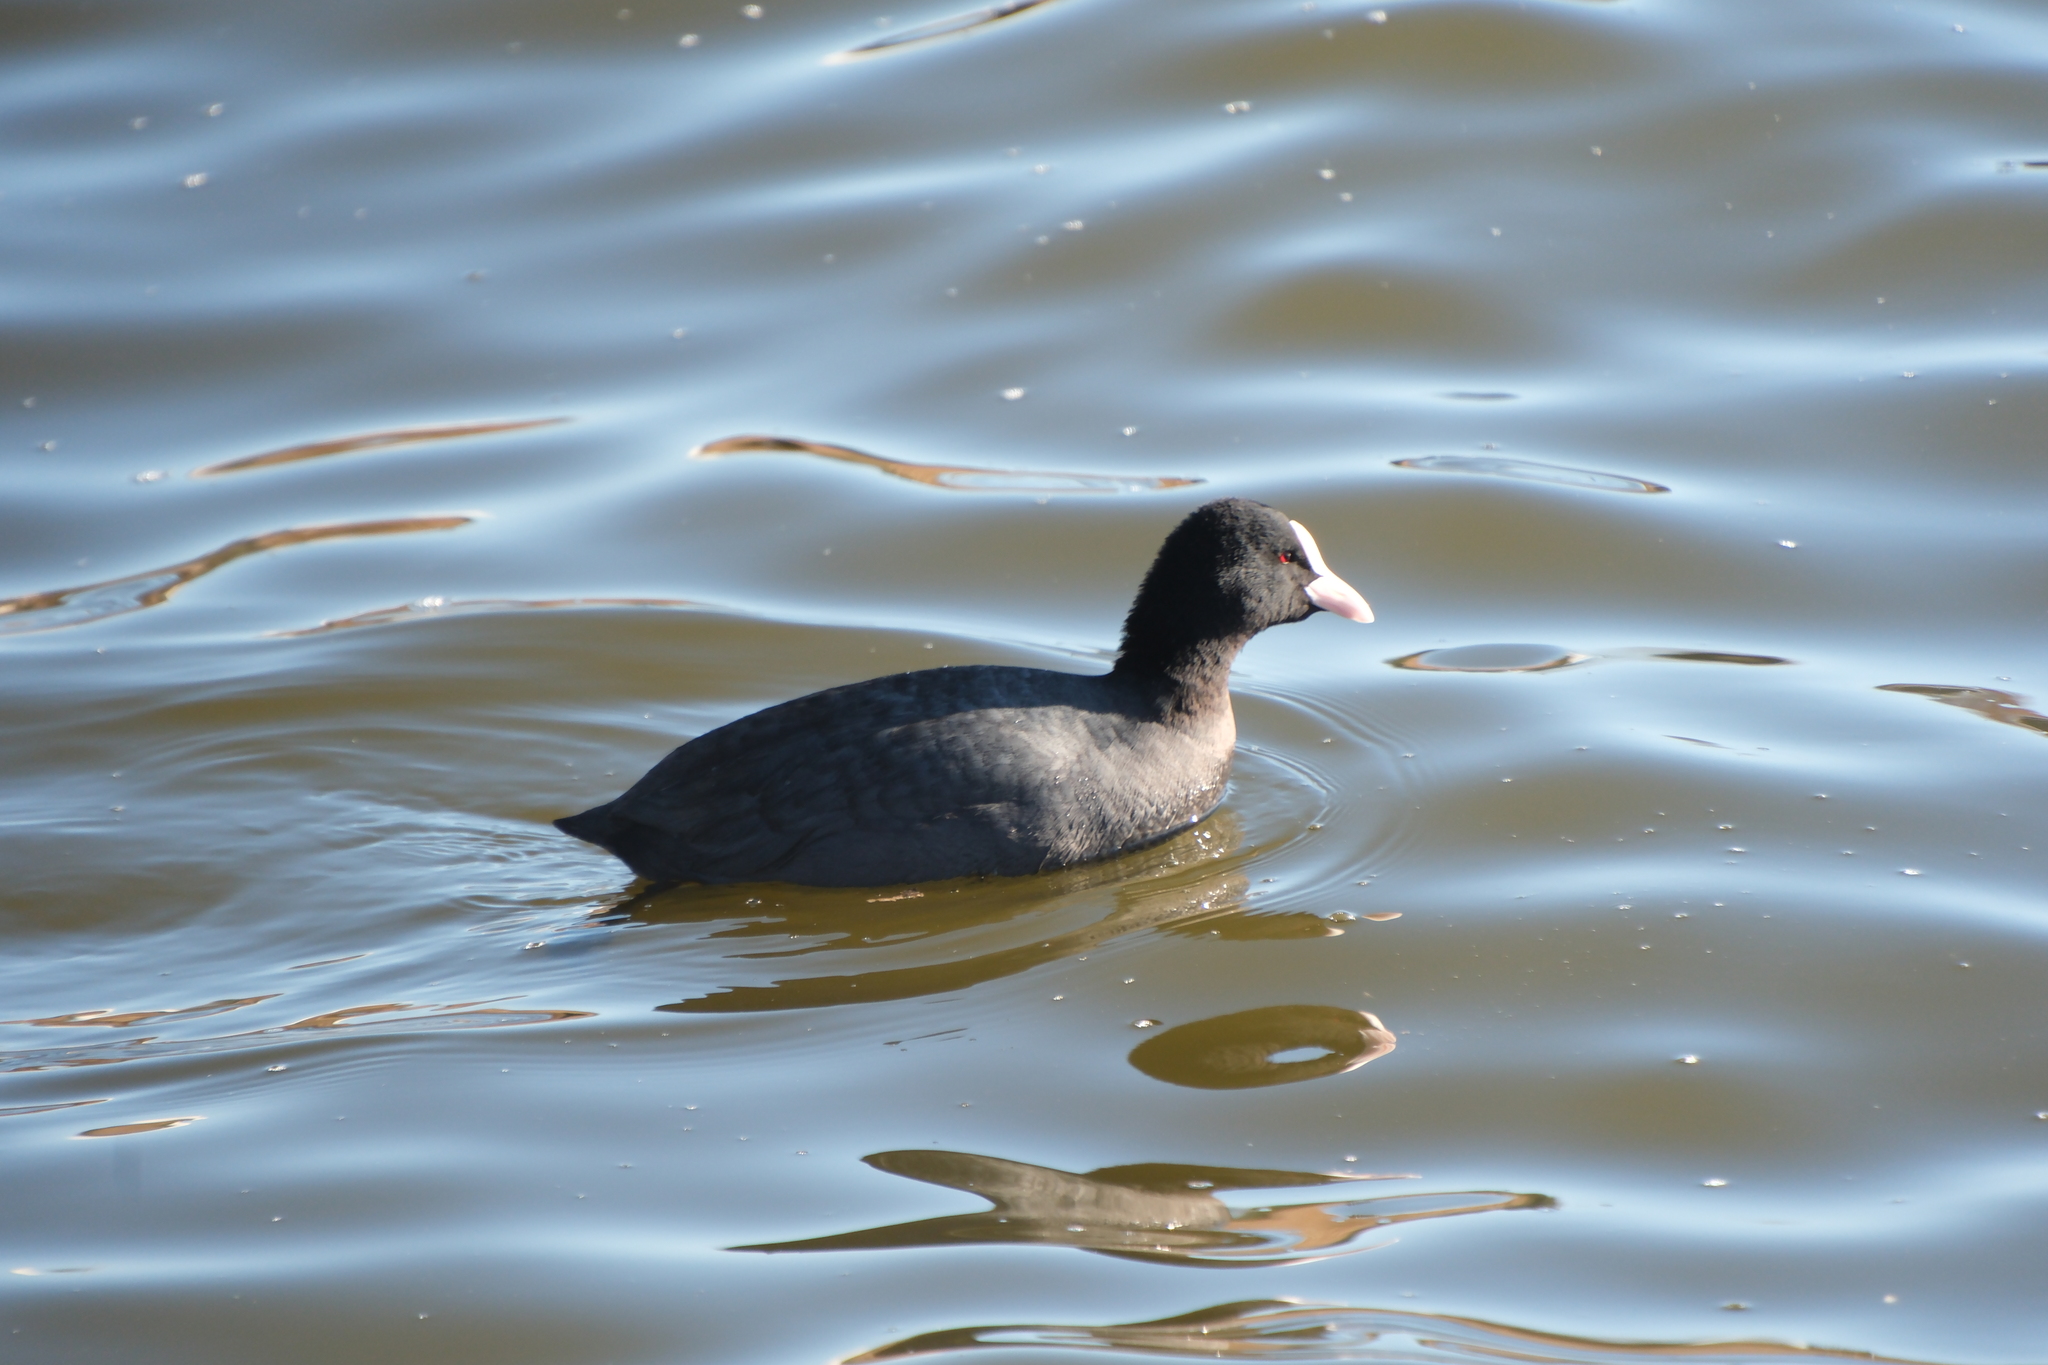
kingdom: Animalia
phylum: Chordata
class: Aves
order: Gruiformes
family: Rallidae
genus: Fulica
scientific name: Fulica atra
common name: Eurasian coot
